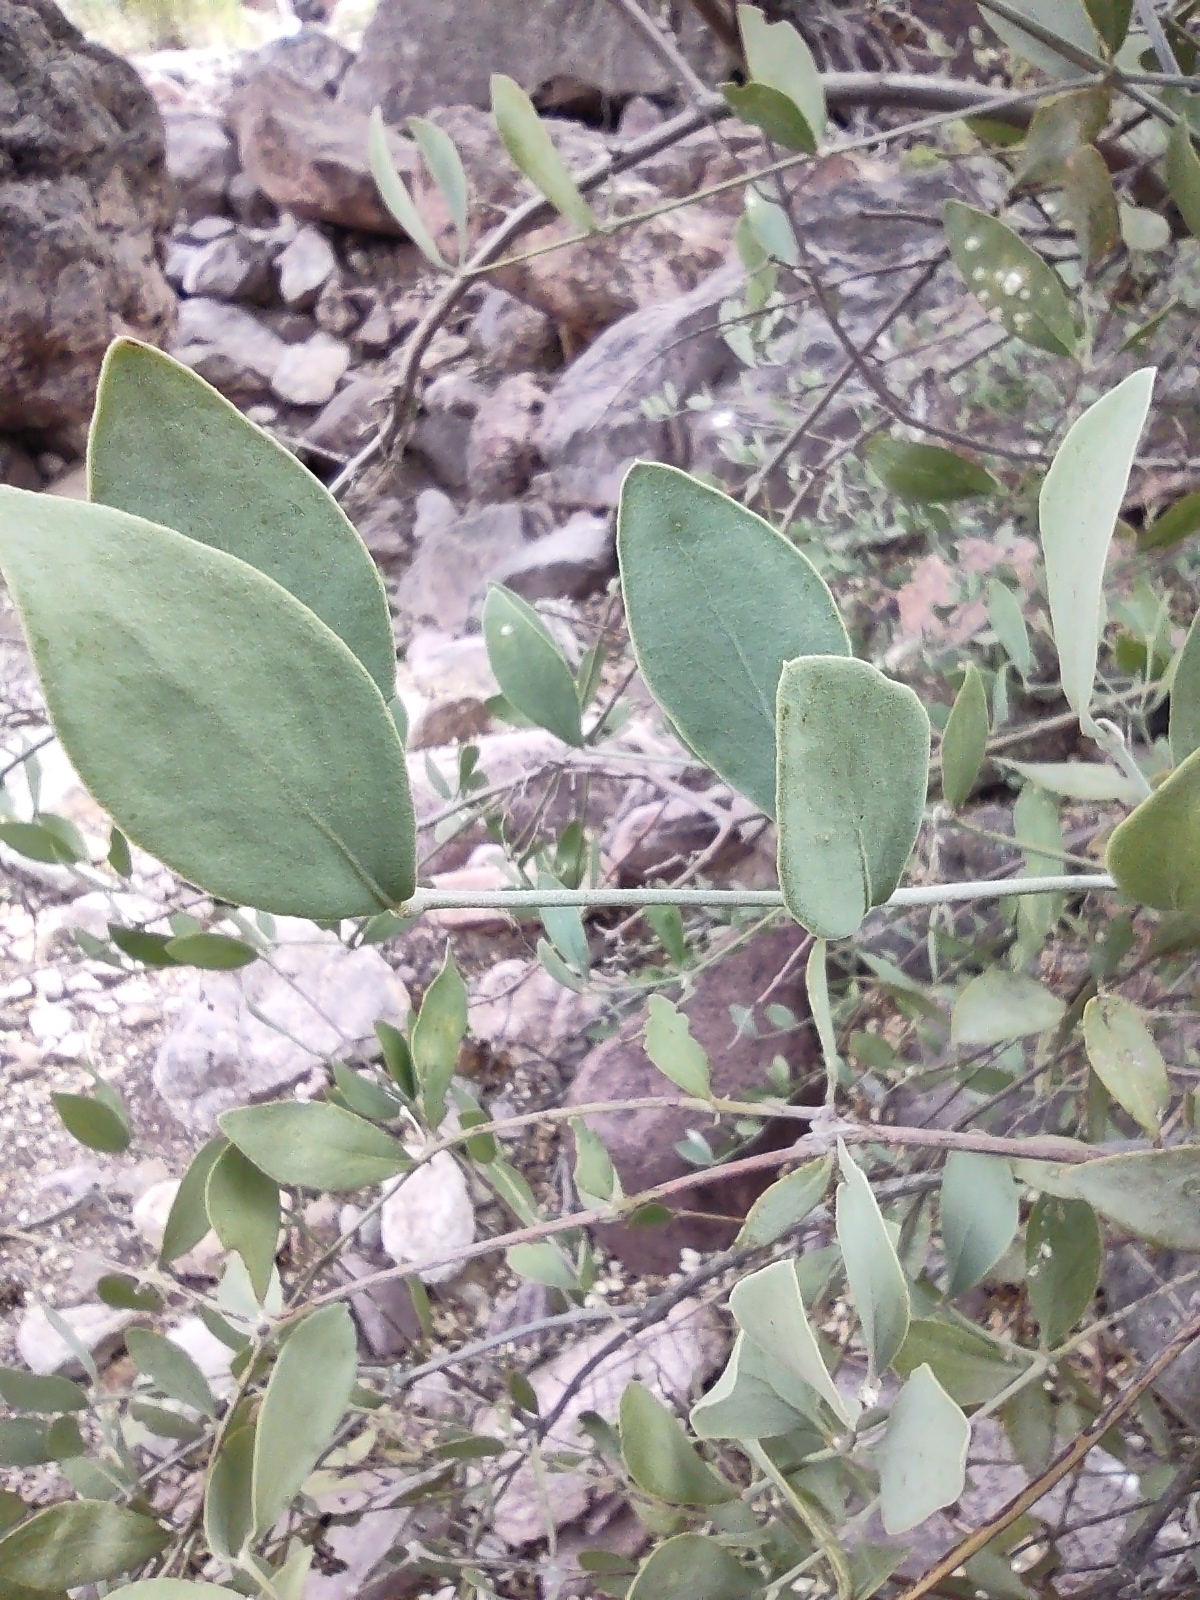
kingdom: Plantae
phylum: Tracheophyta
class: Magnoliopsida
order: Caryophyllales
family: Simmondsiaceae
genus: Simmondsia
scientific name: Simmondsia chinensis
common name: Jojoba
